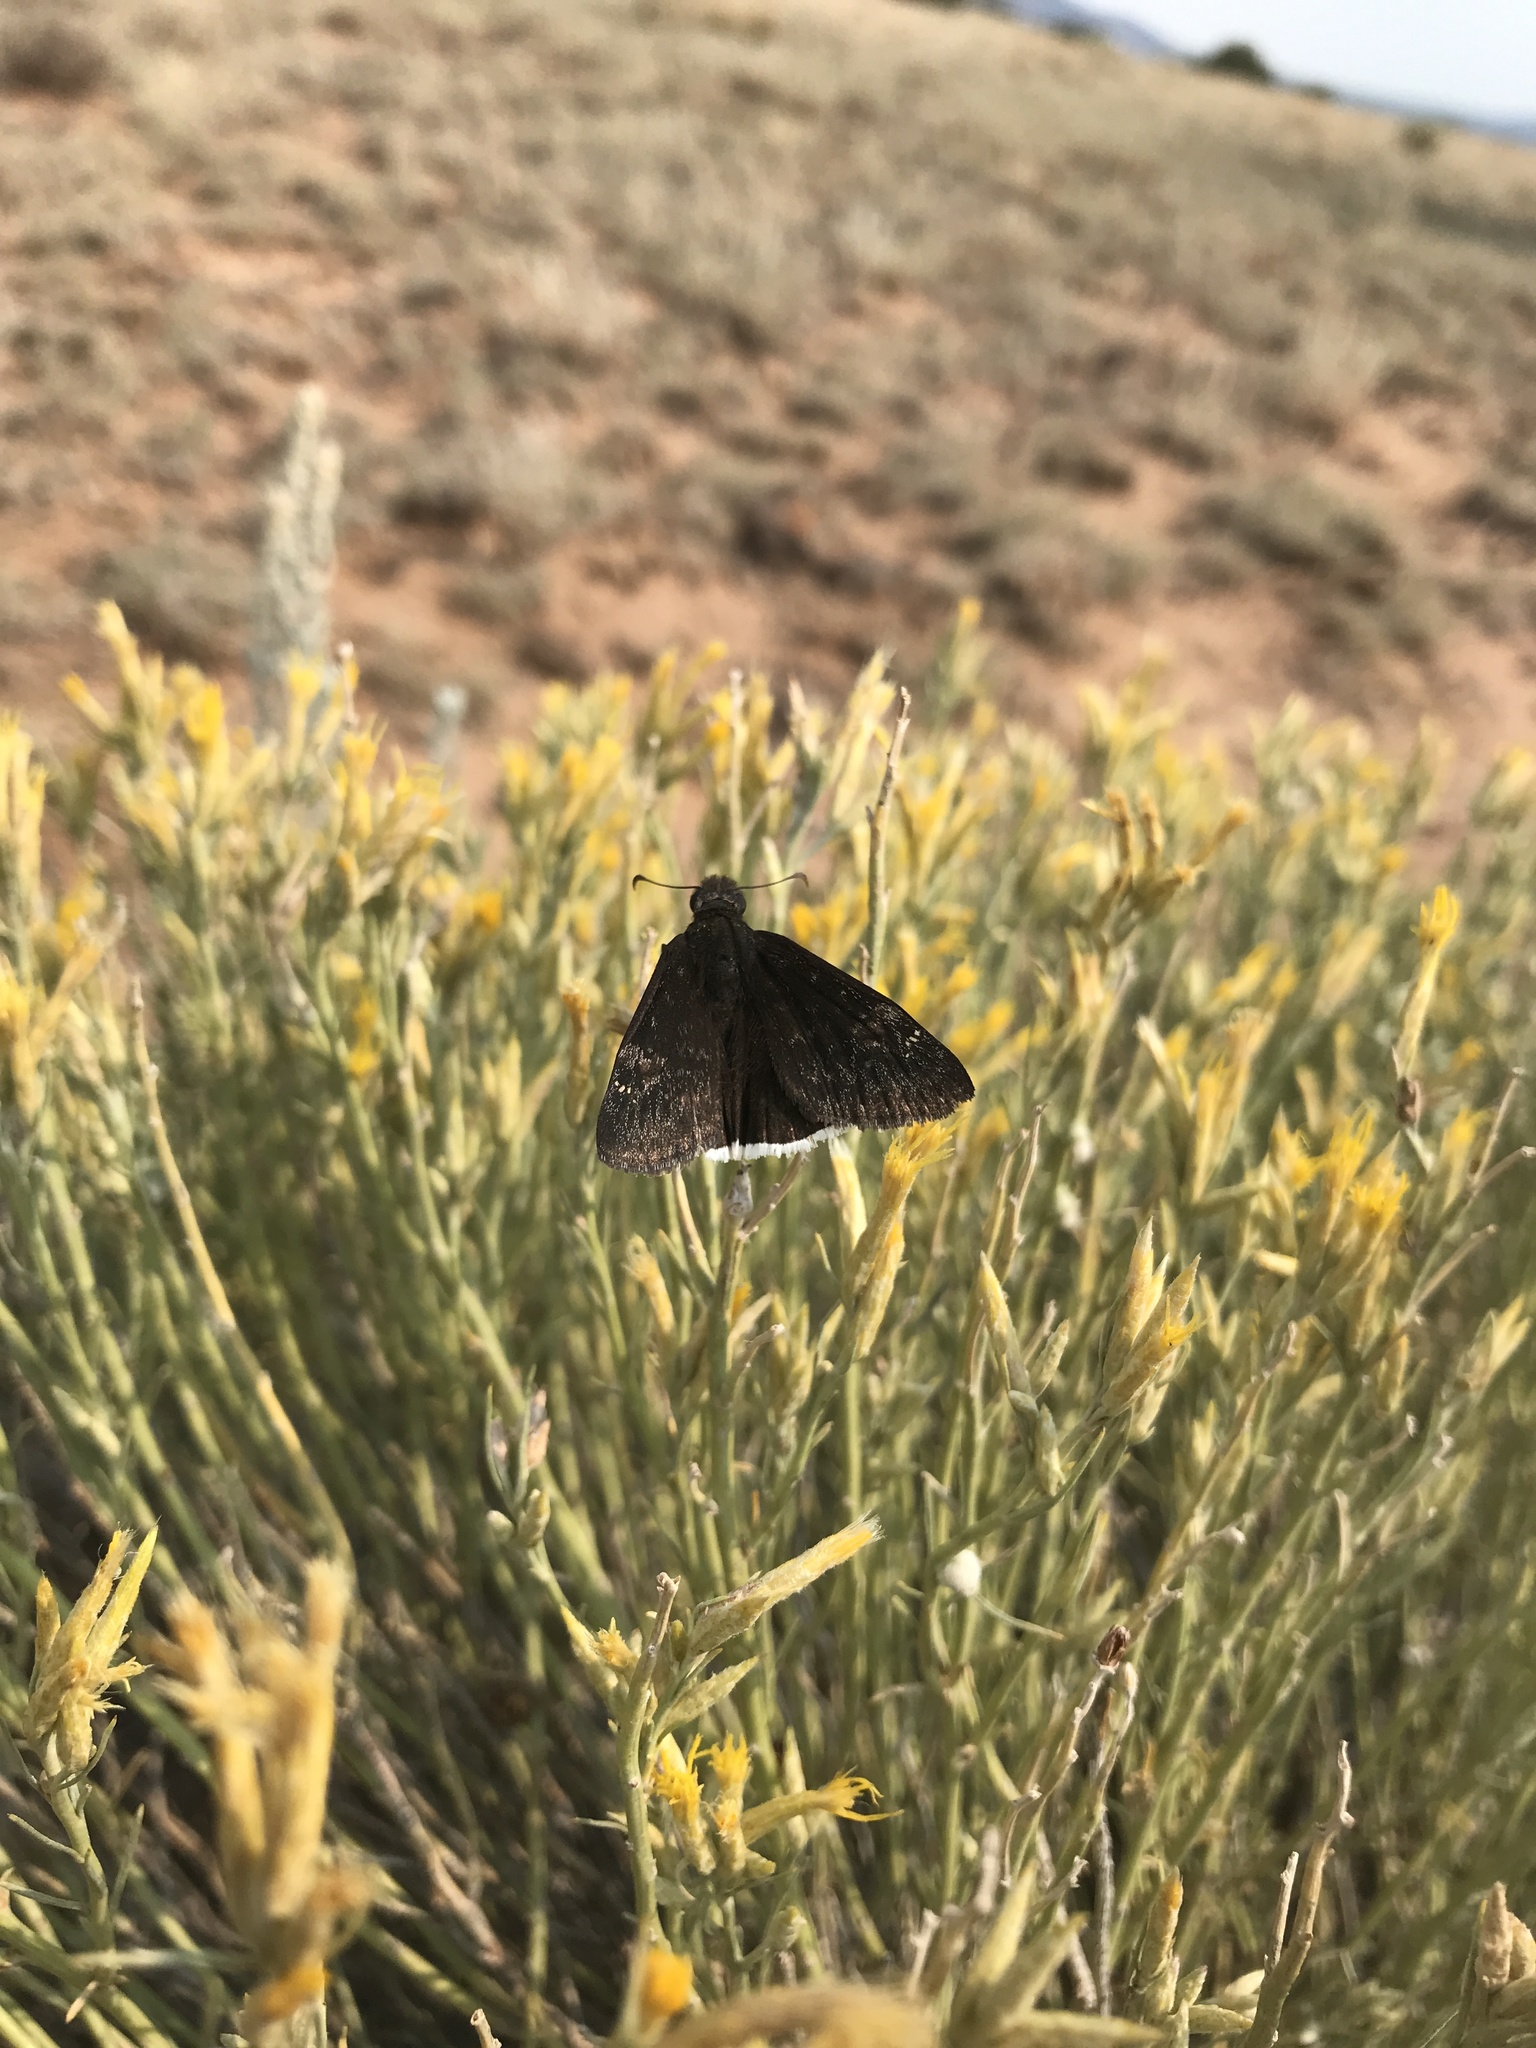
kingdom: Animalia
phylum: Arthropoda
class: Insecta
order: Lepidoptera
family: Hesperiidae
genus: Erynnis
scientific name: Erynnis funeralis
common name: Funereal duskywing
